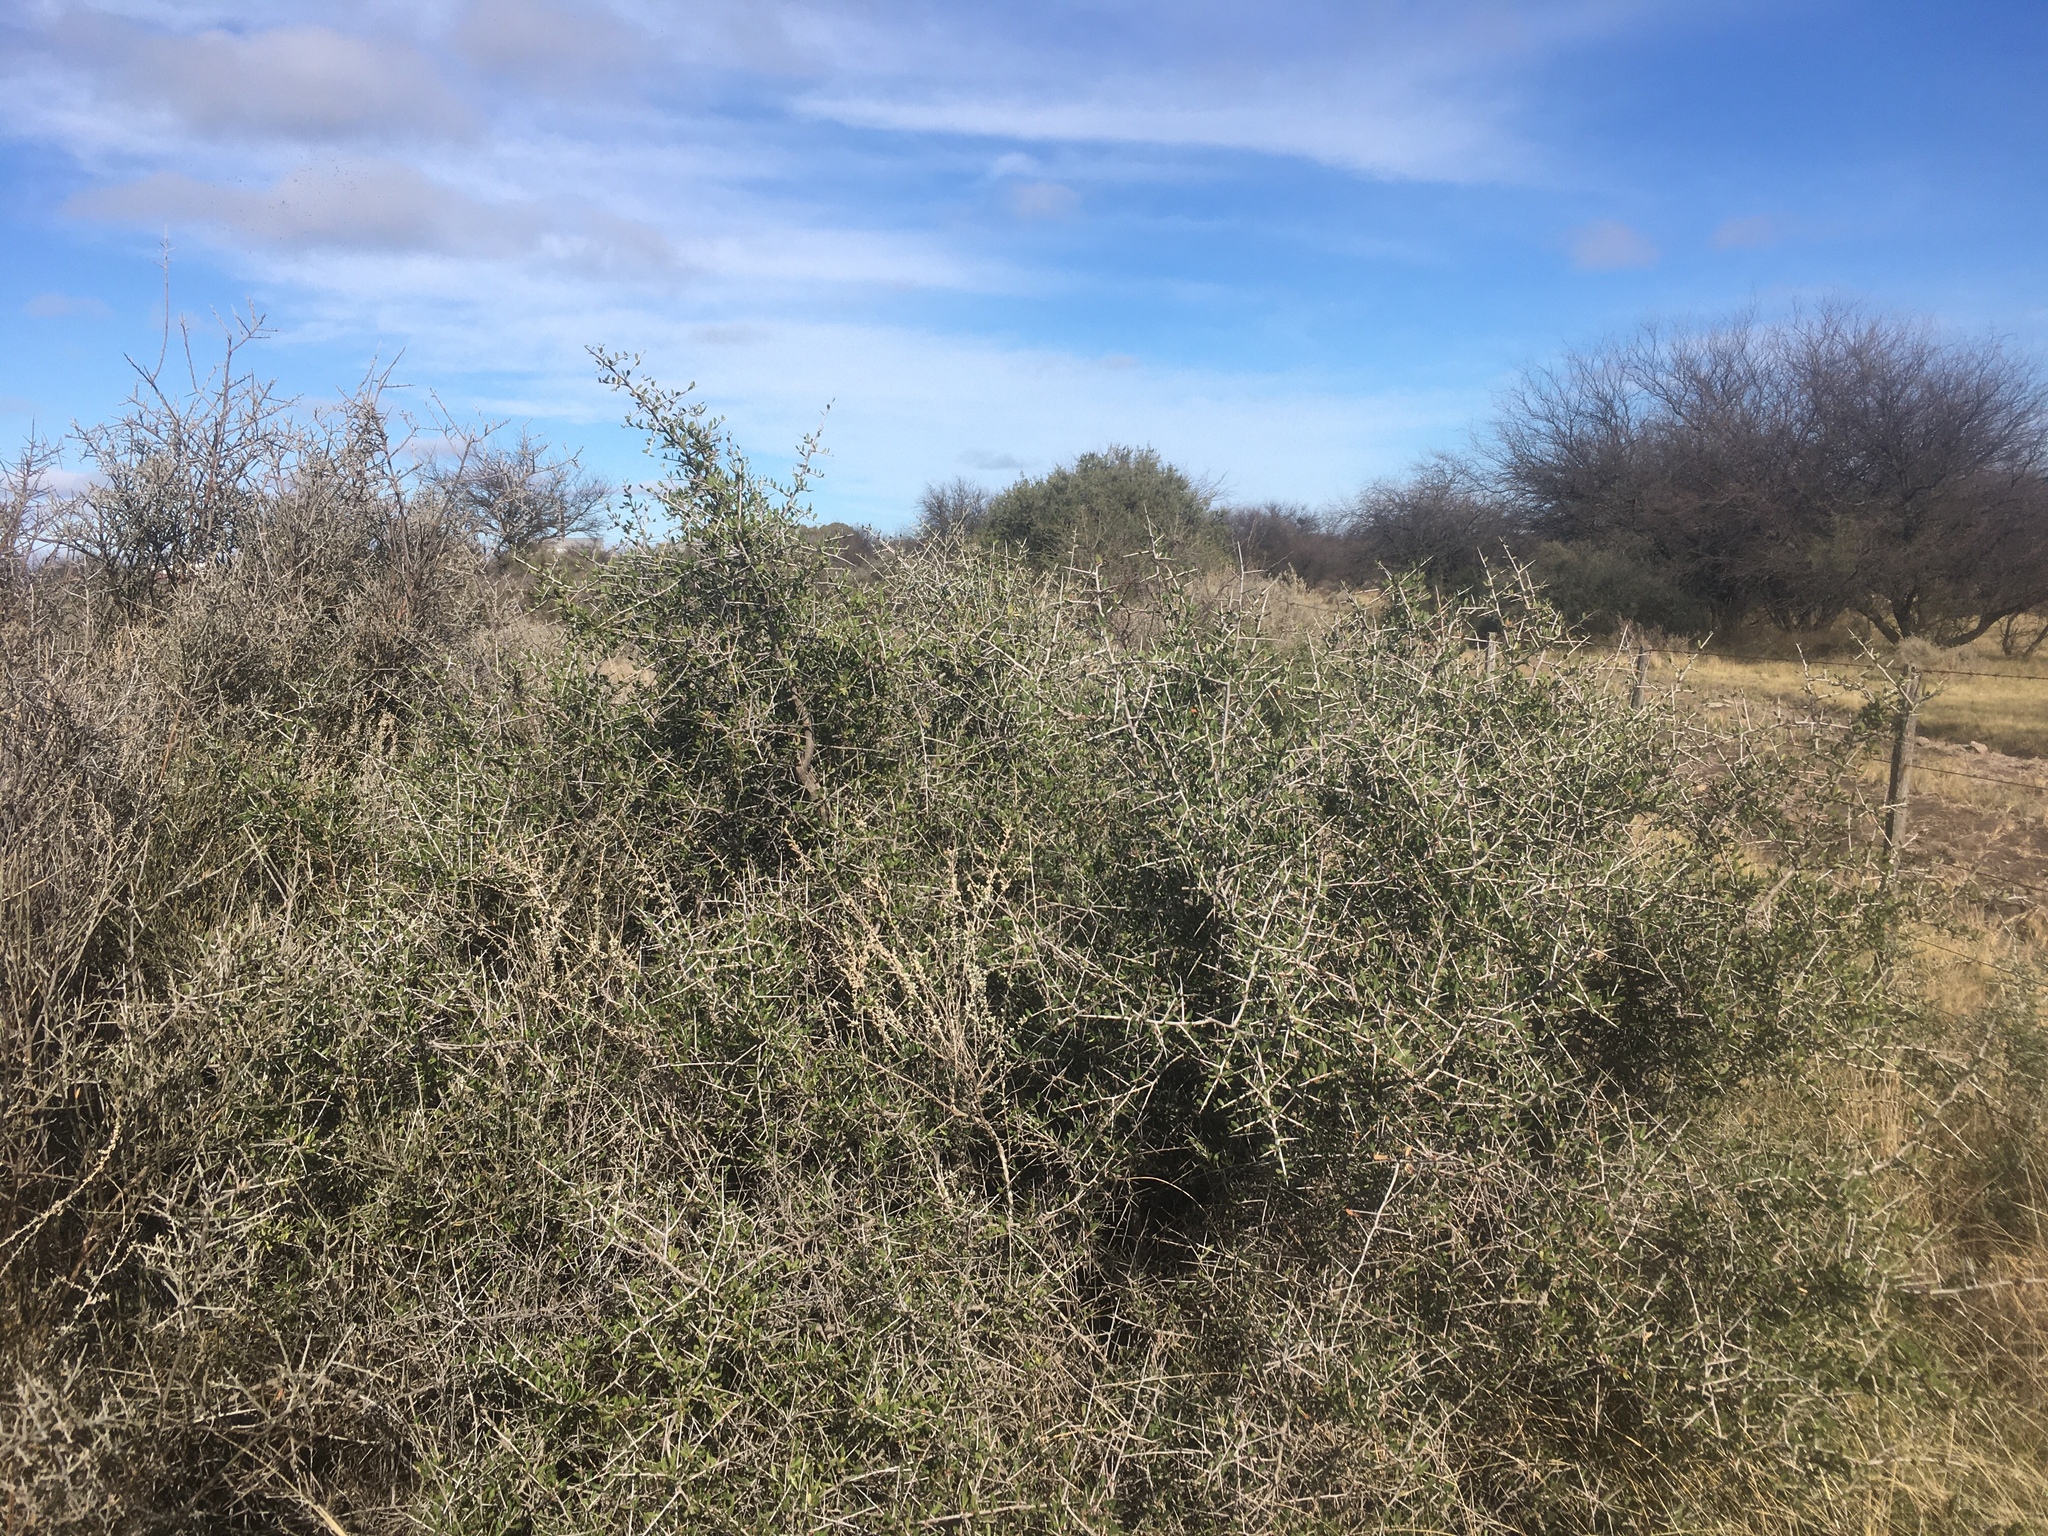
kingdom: Plantae
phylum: Tracheophyta
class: Magnoliopsida
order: Sapindales
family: Anacardiaceae
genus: Schinus
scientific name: Schinus johnstonii
